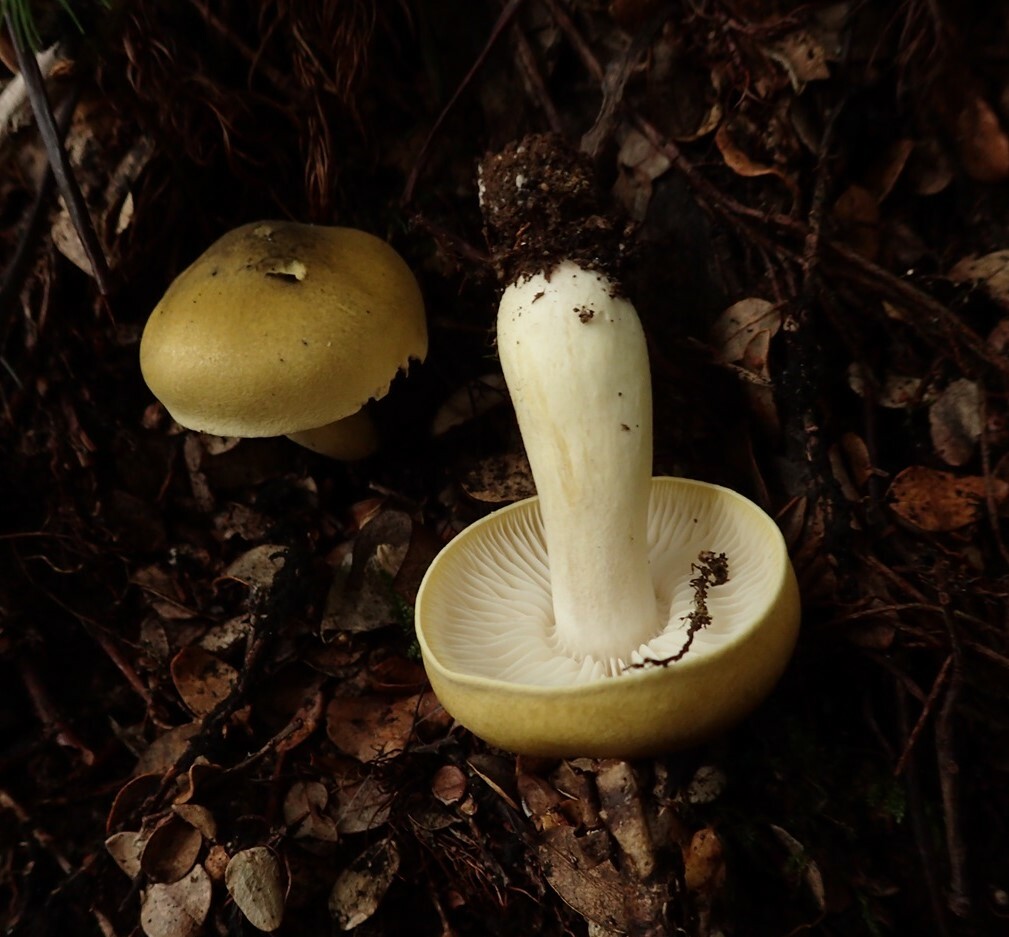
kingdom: Fungi
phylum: Basidiomycota
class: Agaricomycetes
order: Agaricales
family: Tricholomataceae
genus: Tricholoma
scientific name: Tricholoma viridiolivaceum
